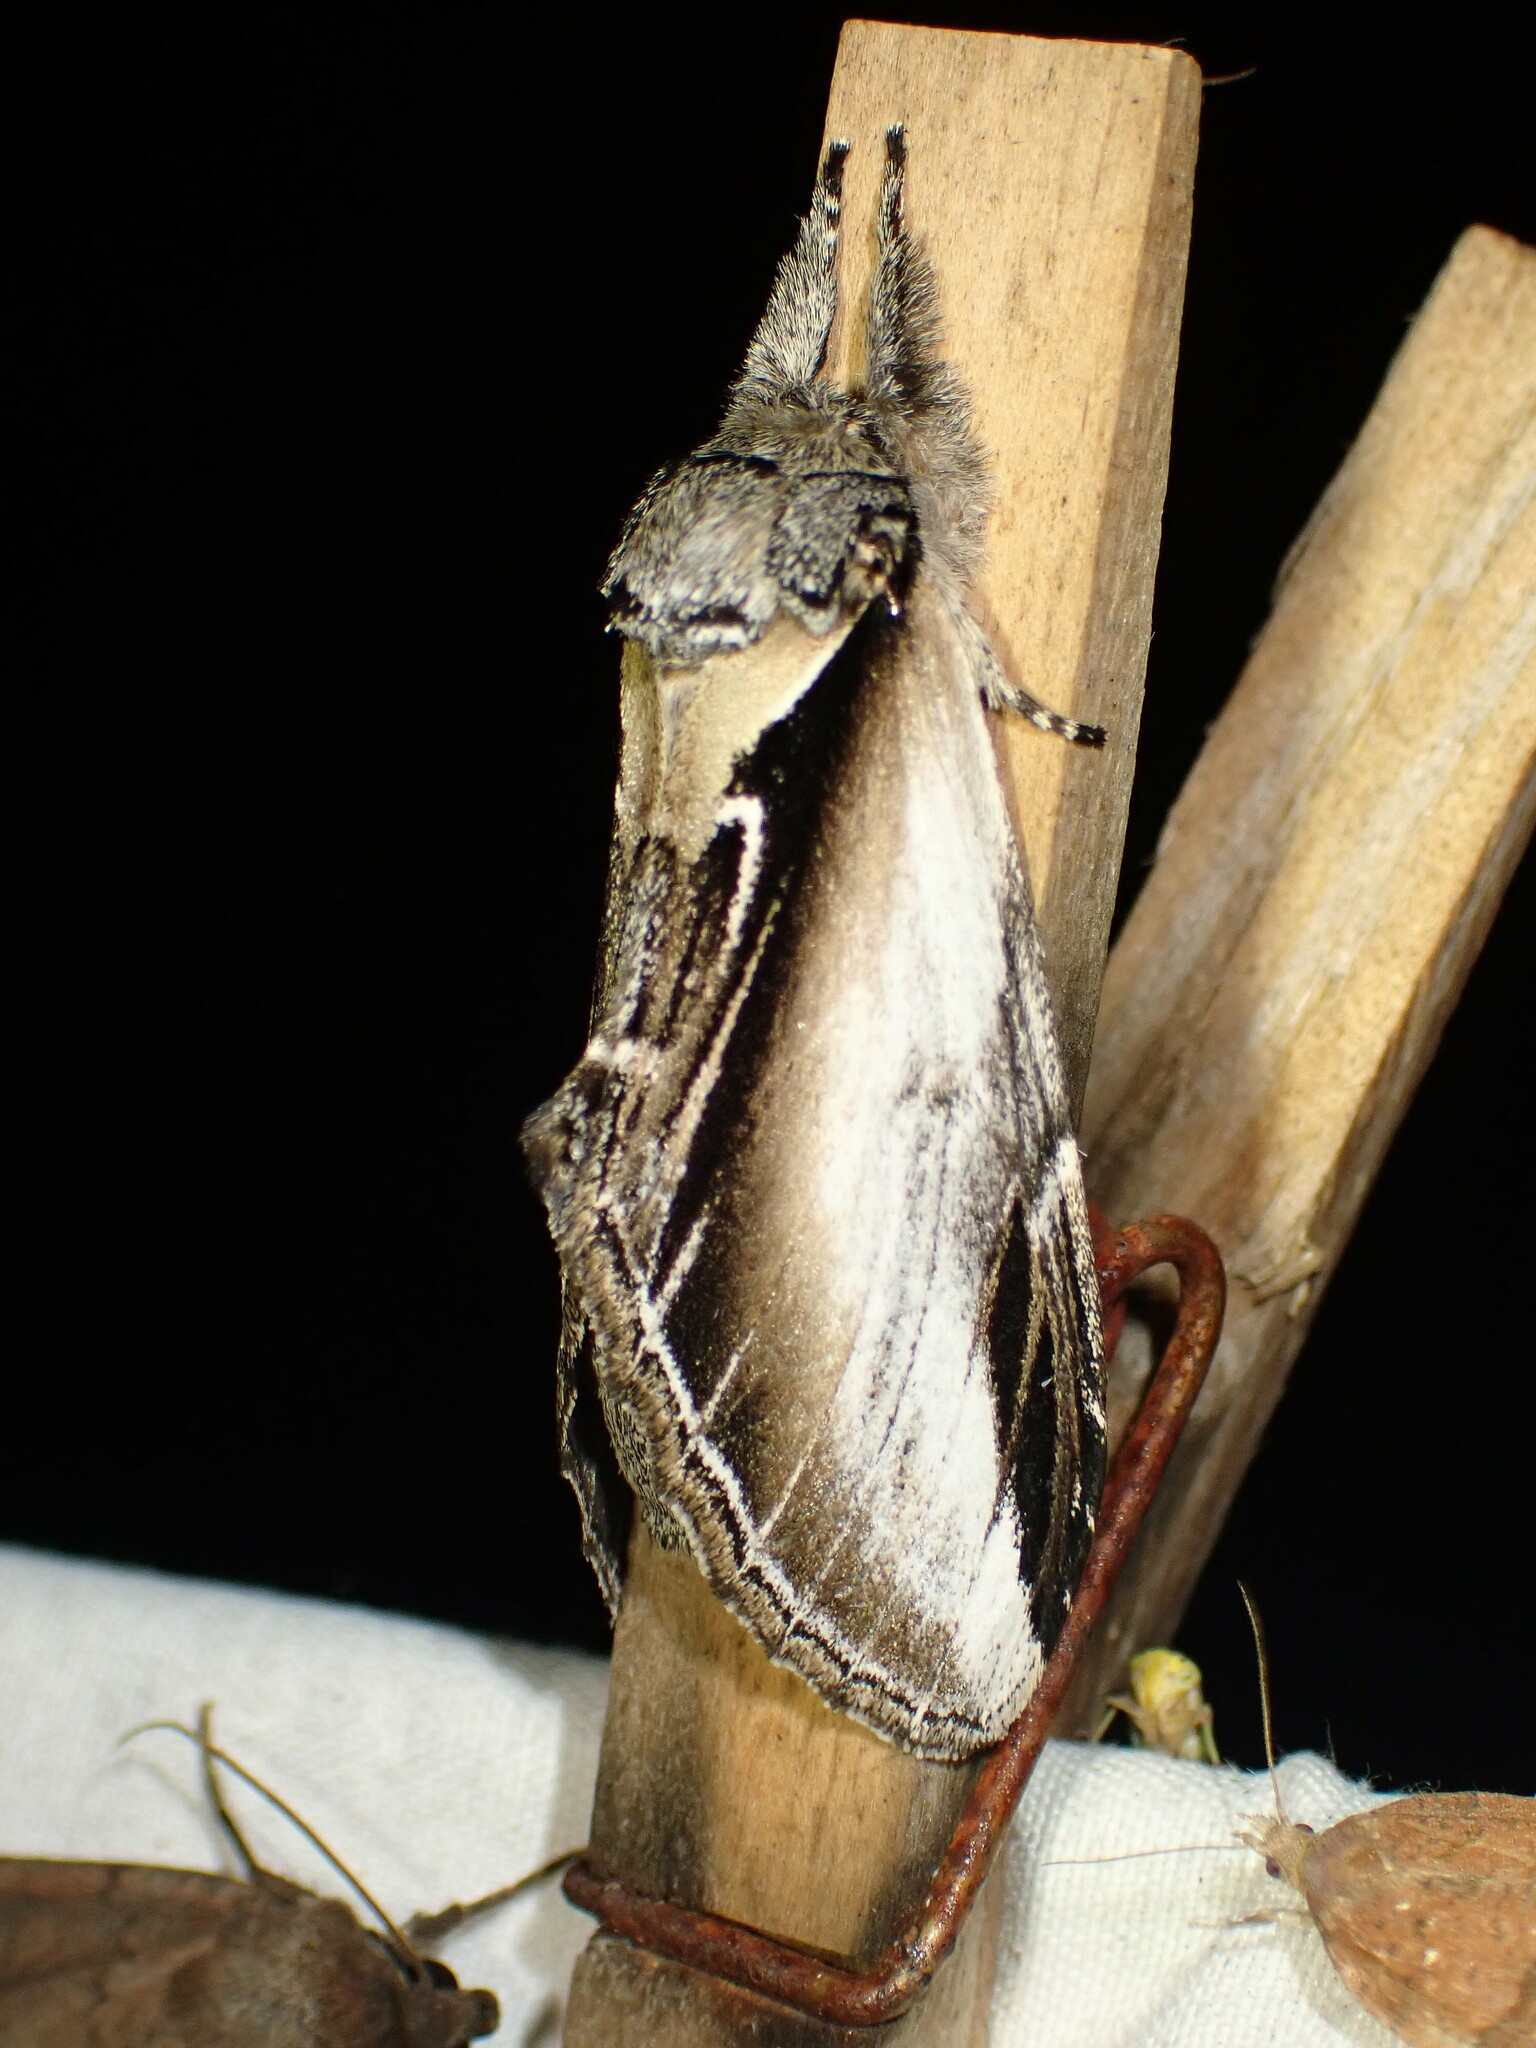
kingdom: Animalia
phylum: Arthropoda
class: Insecta
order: Lepidoptera
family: Notodontidae
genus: Pheosia
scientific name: Pheosia rimosa
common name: Black-rimmed prominent
